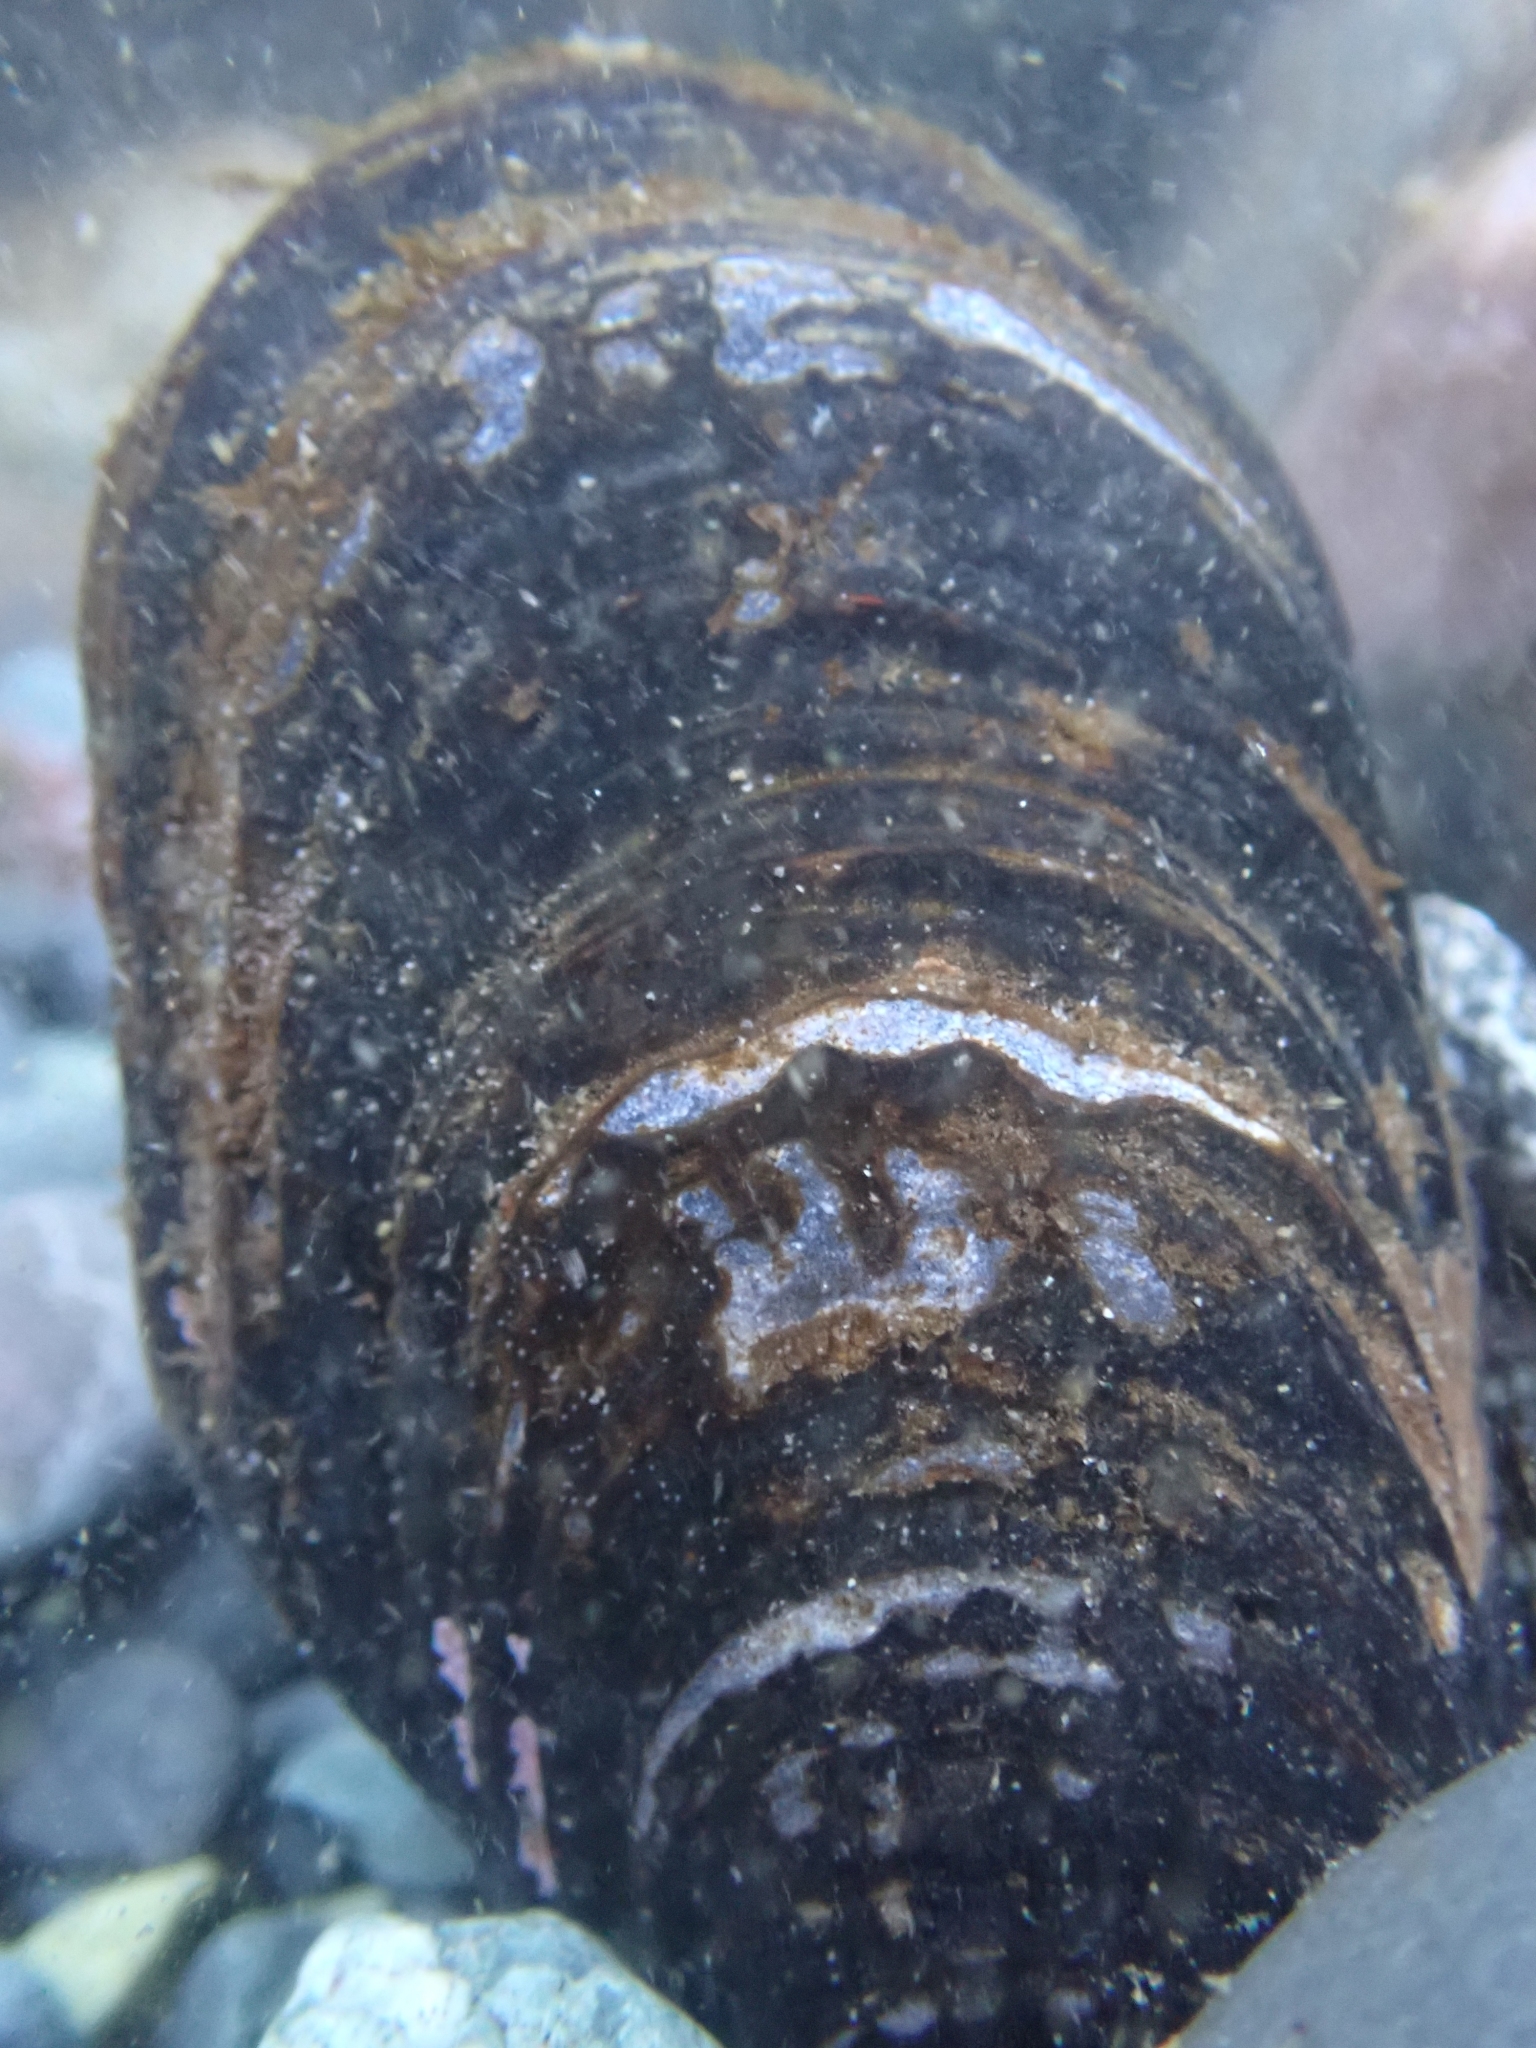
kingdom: Animalia
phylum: Mollusca
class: Bivalvia
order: Mytilida
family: Mytilidae
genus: Mytilus
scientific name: Mytilus californianus
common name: California mussel
